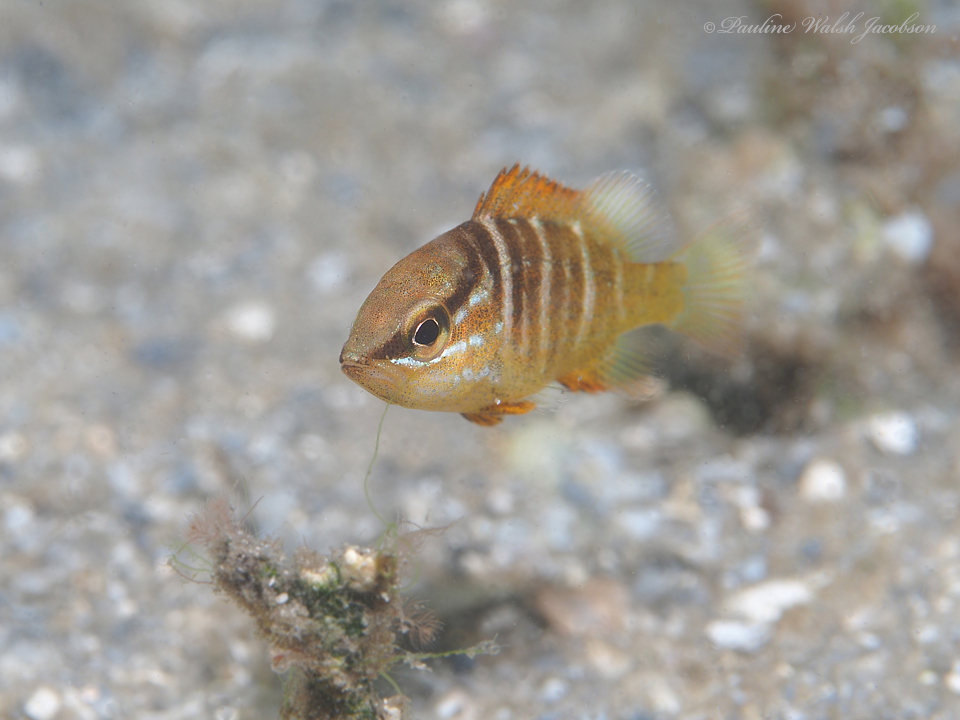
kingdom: Animalia
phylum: Chordata
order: Perciformes
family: Lutjanidae
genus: Lutjanus
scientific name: Lutjanus apodus
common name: Schoolmaster
